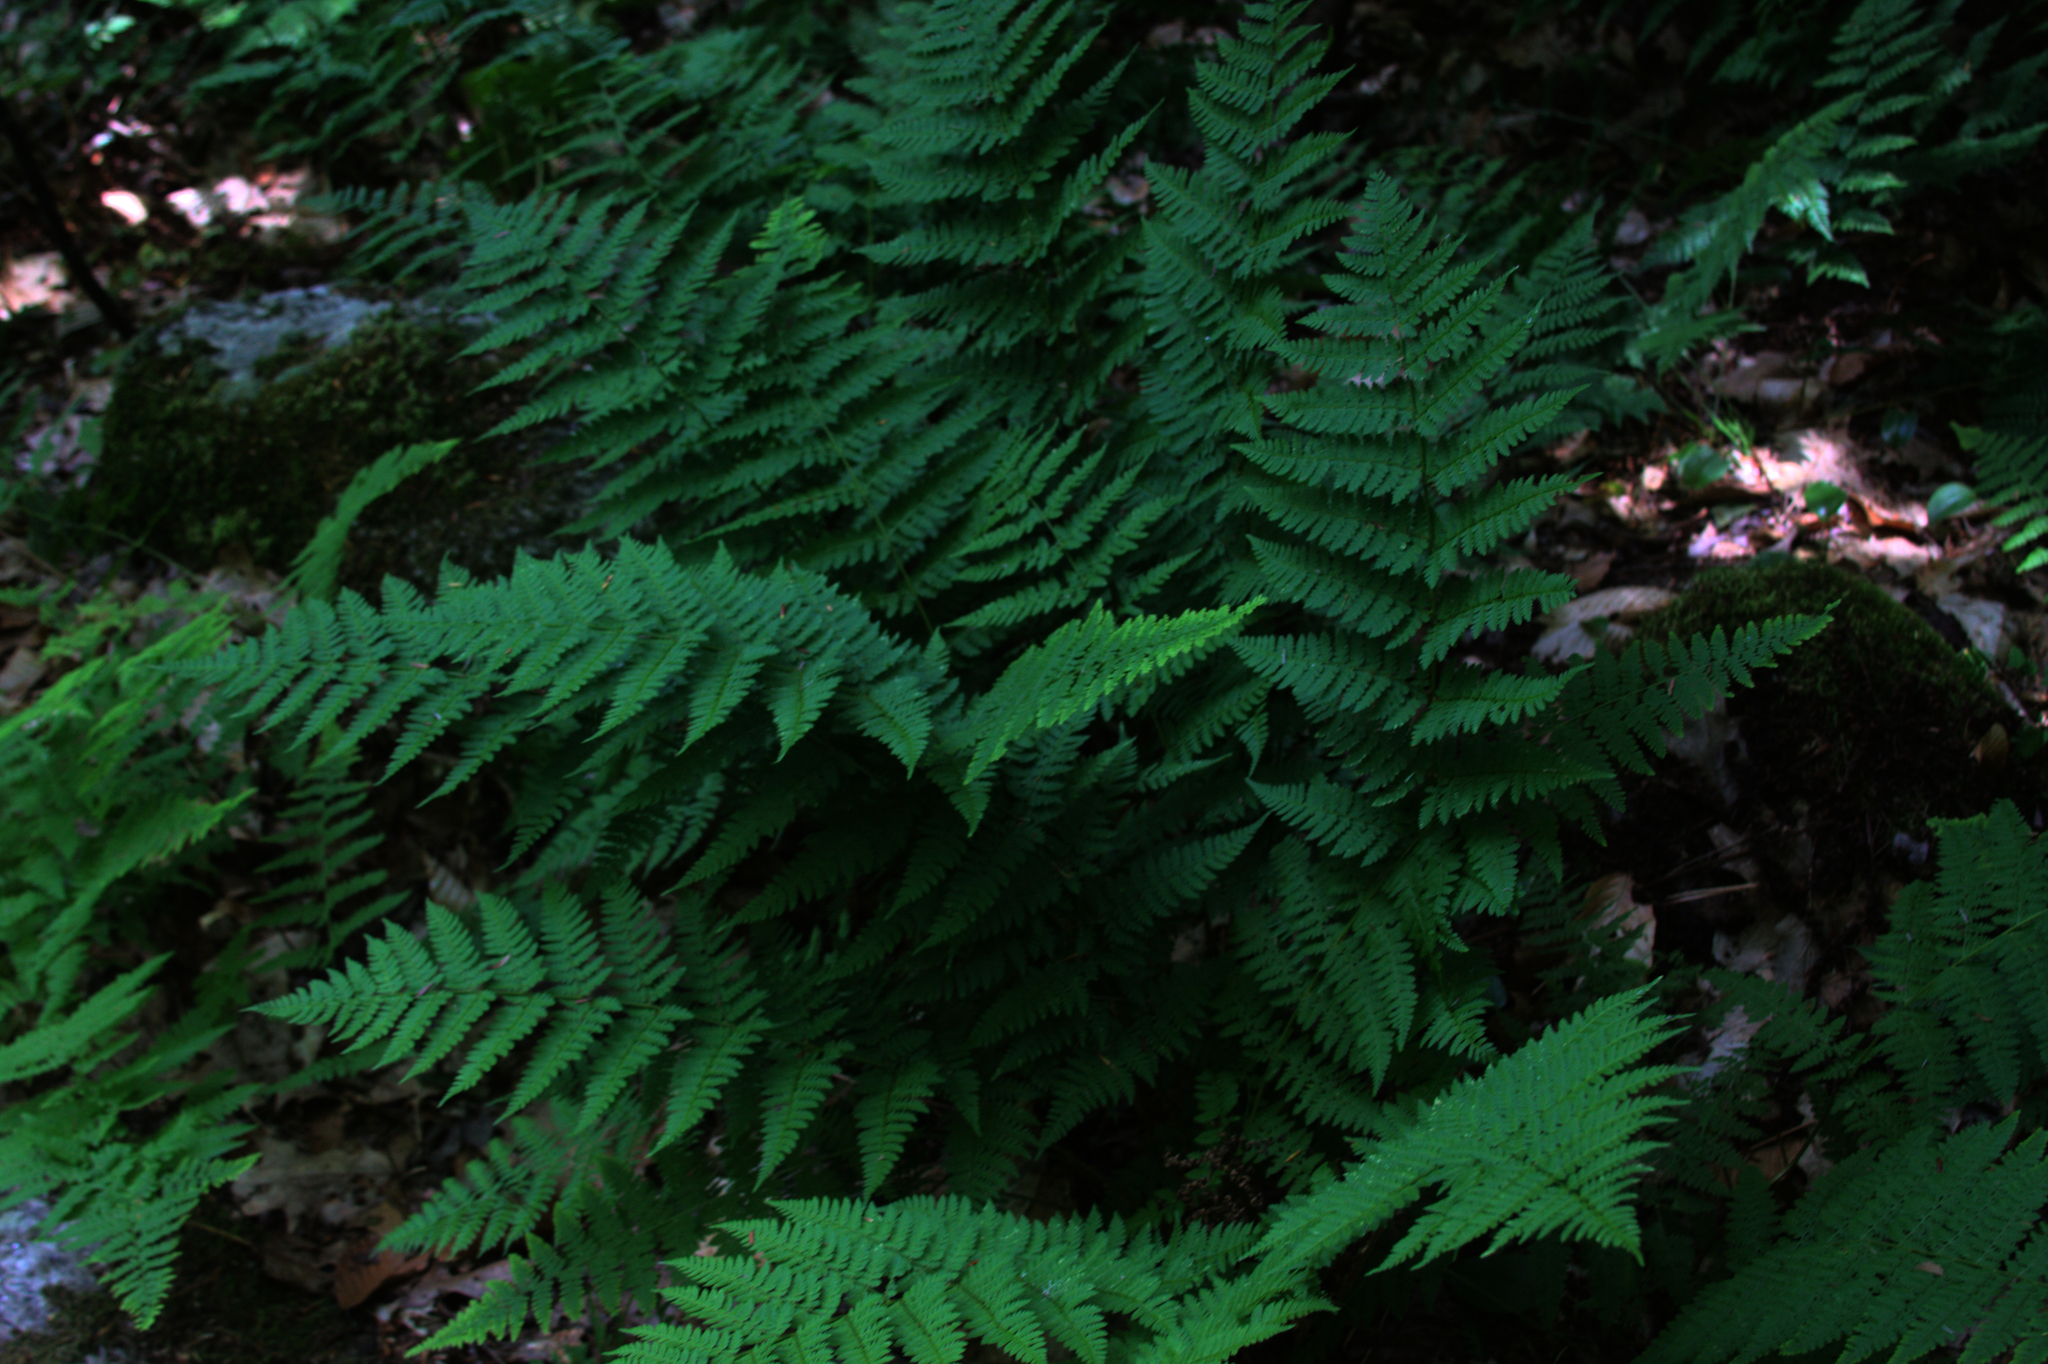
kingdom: Plantae
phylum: Tracheophyta
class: Polypodiopsida
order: Polypodiales
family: Dryopteridaceae
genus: Dryopteris
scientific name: Dryopteris intermedia
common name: Evergreen wood fern
